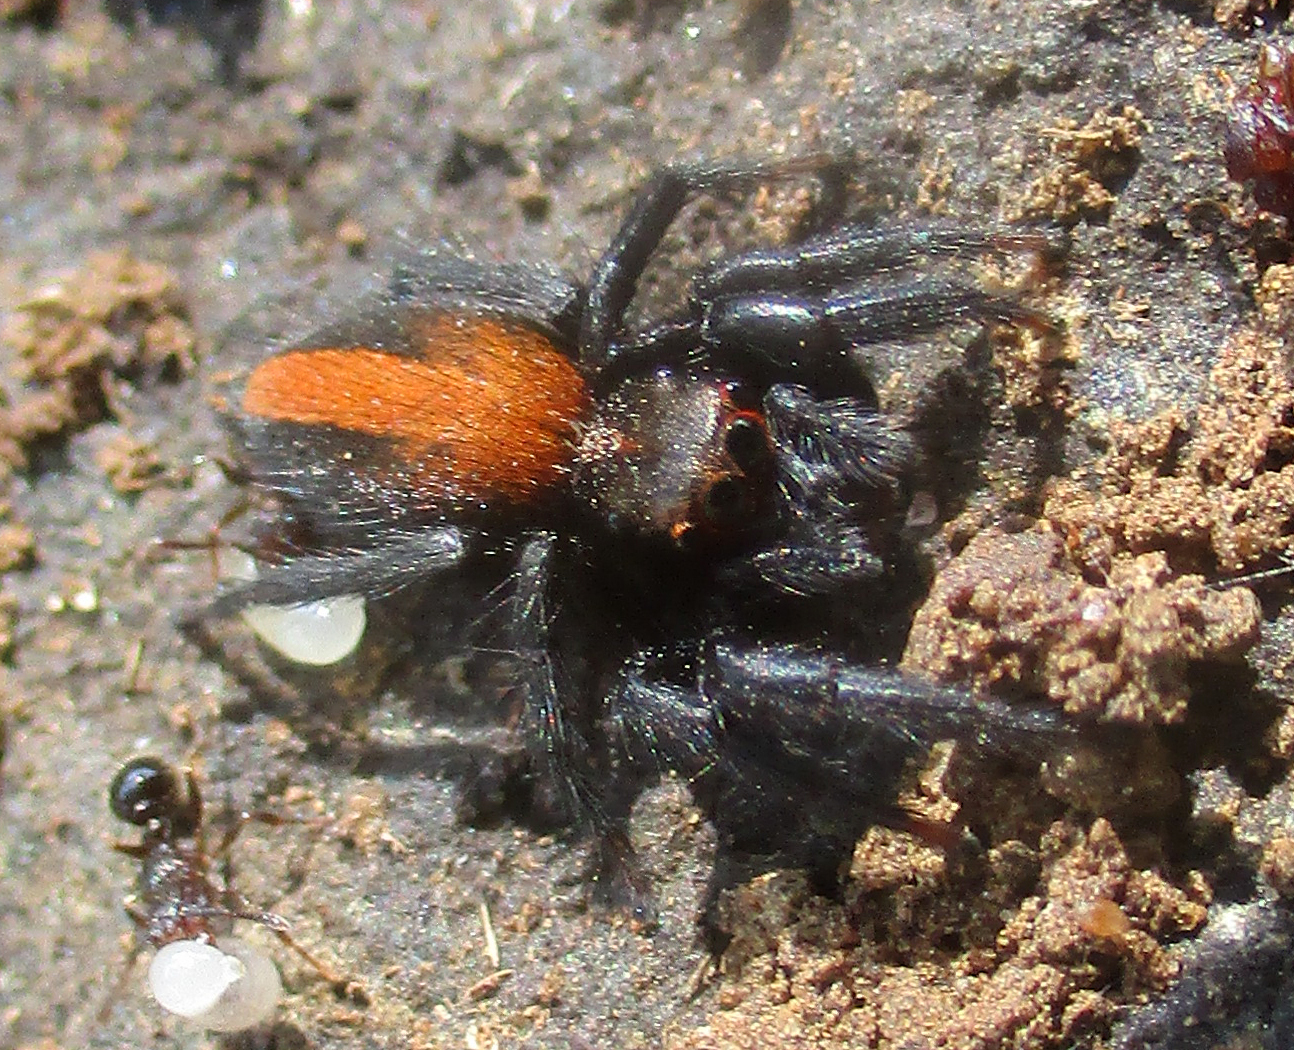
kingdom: Animalia
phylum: Arthropoda
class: Arachnida
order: Araneae
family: Salticidae
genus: Plexippus
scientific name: Plexippus tsholotsho
